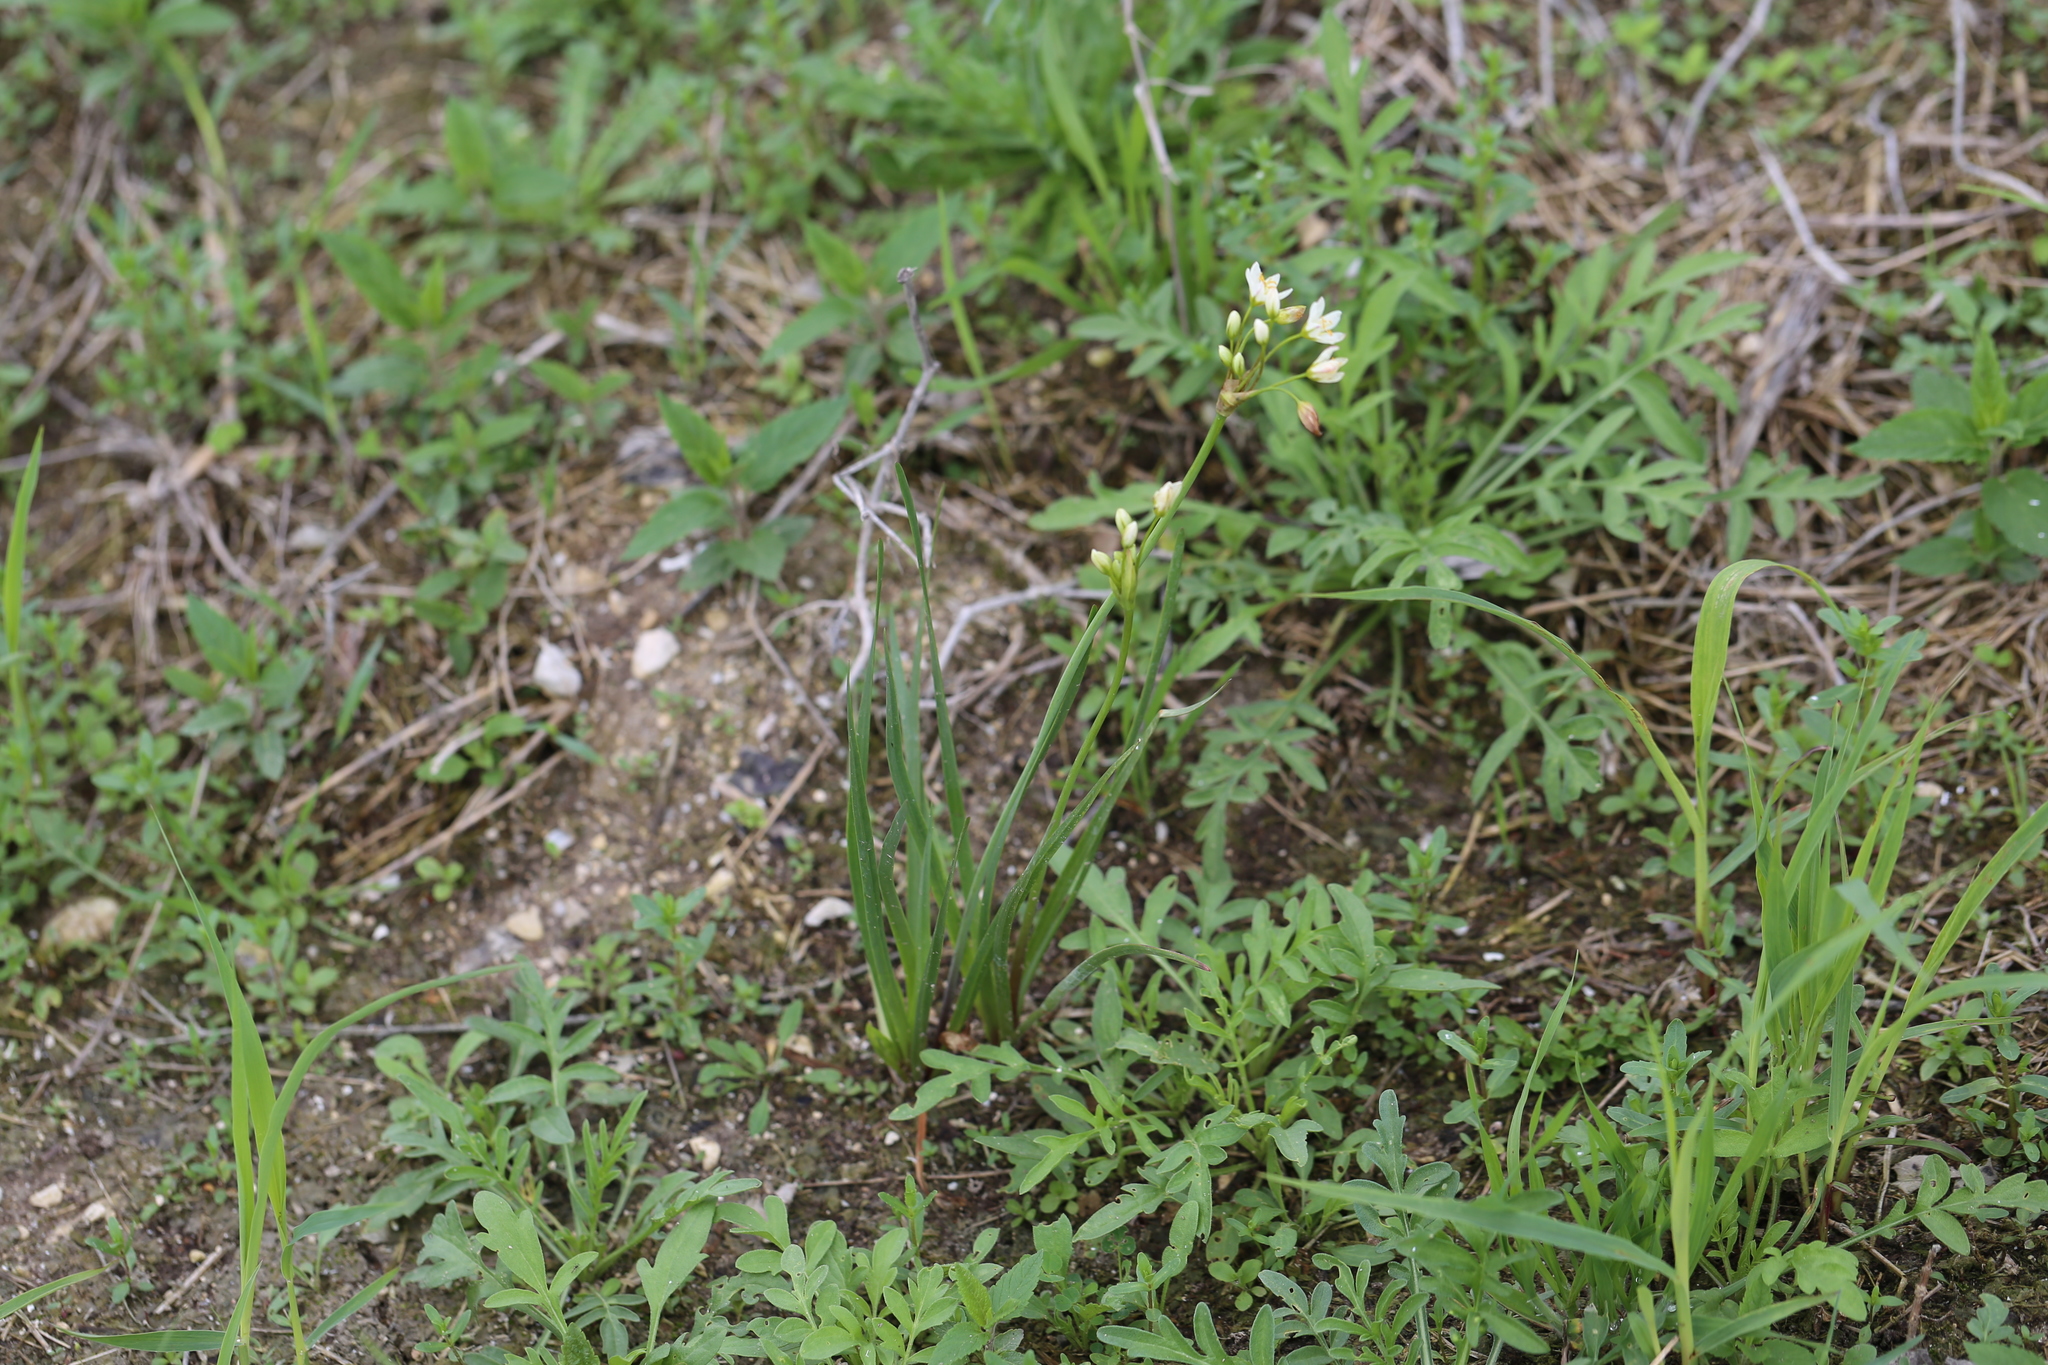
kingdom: Plantae
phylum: Tracheophyta
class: Liliopsida
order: Asparagales
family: Amaryllidaceae
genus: Nothoscordum
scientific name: Nothoscordum bivalve
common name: Crow-poison
